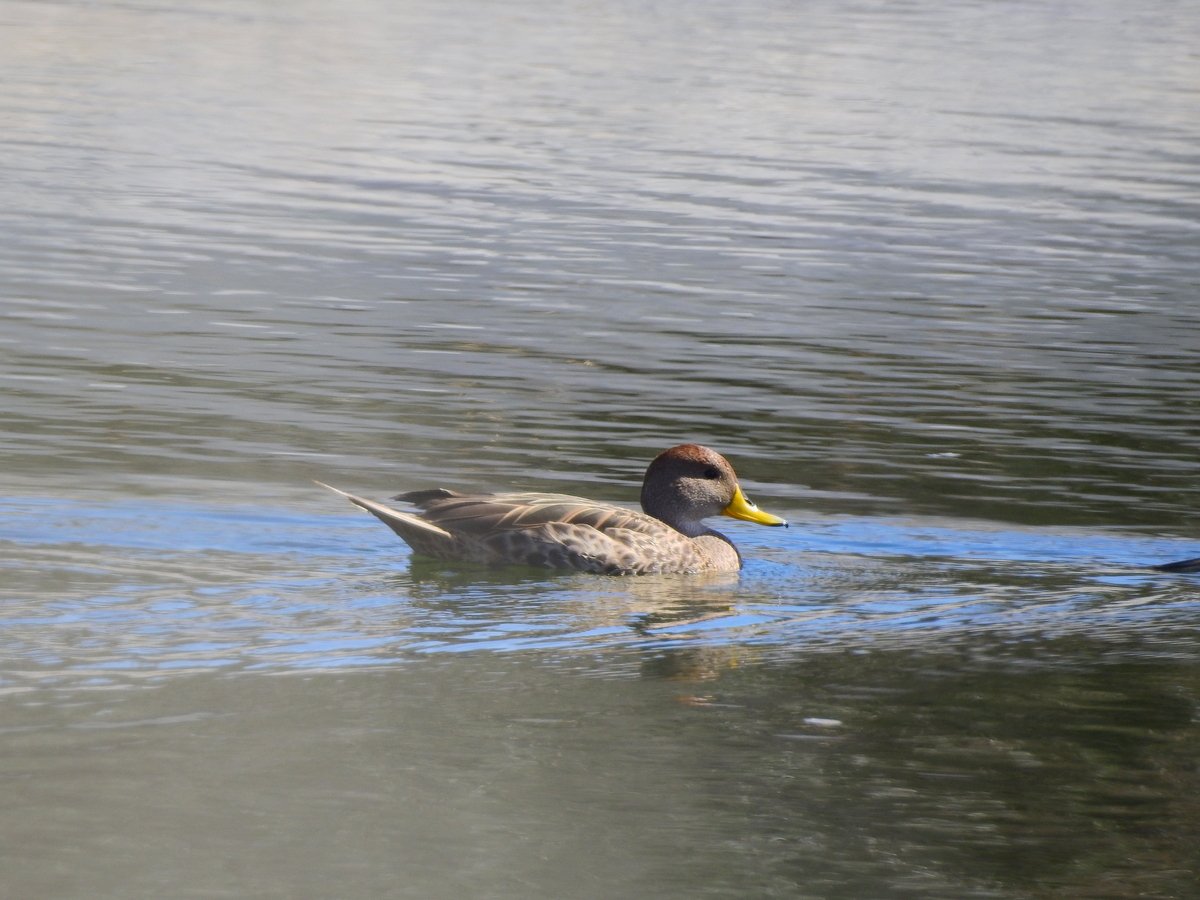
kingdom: Animalia
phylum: Chordata
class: Aves
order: Anseriformes
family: Anatidae
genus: Anas
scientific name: Anas georgica
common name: Yellow-billed pintail
